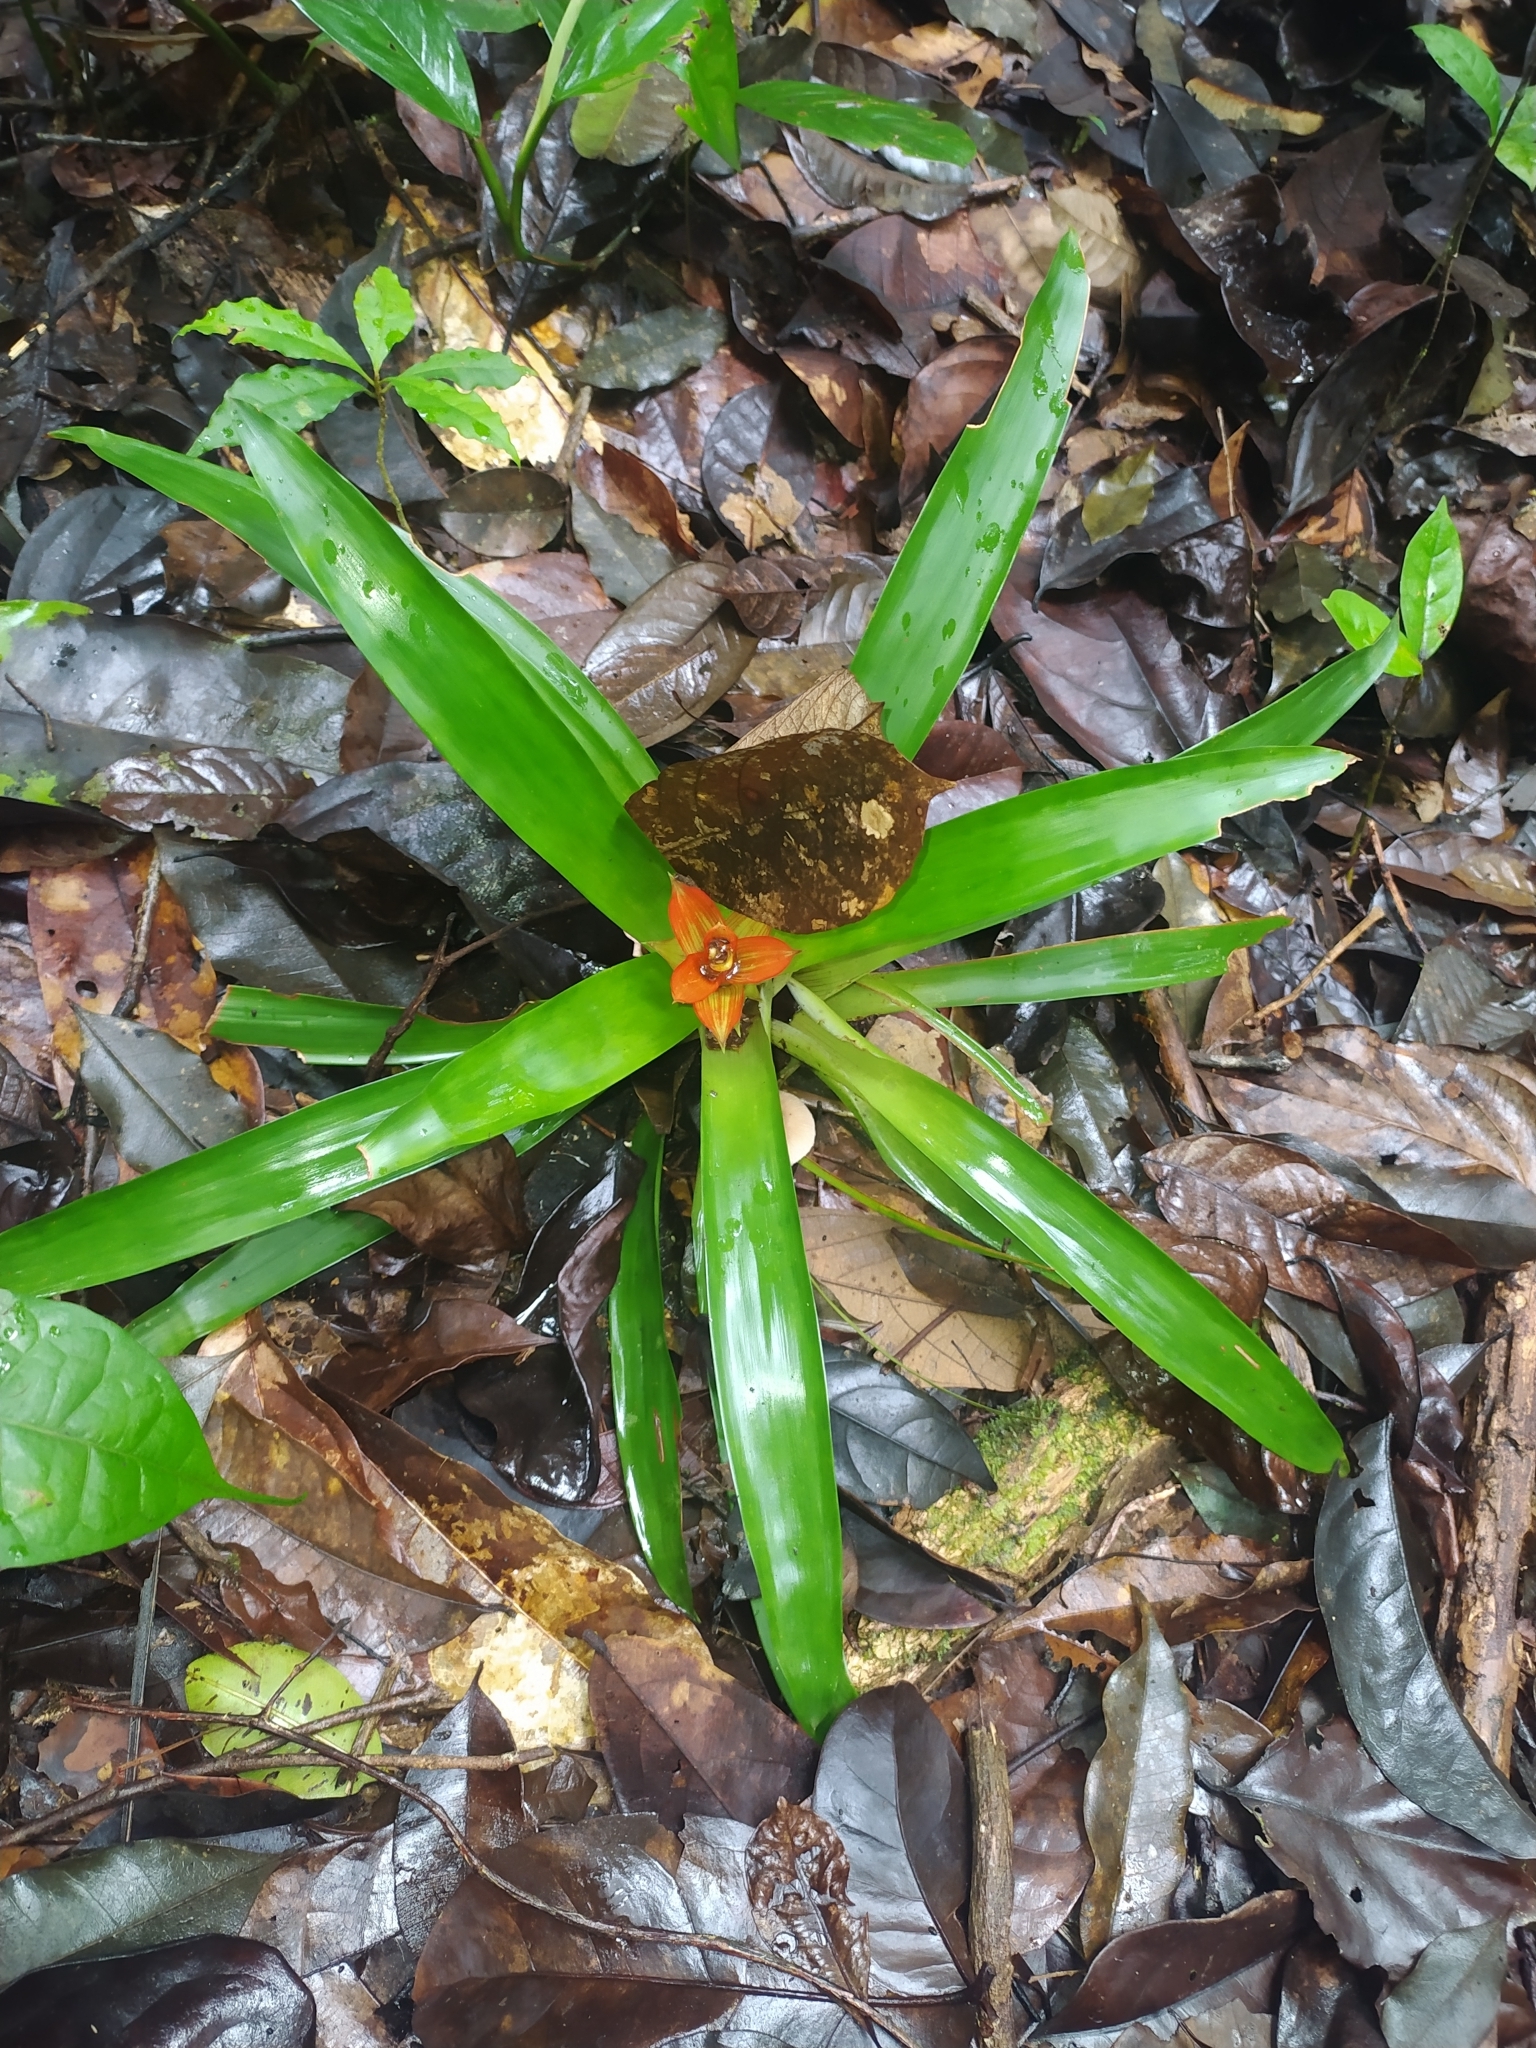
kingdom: Plantae
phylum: Tracheophyta
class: Liliopsida
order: Poales
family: Bromeliaceae
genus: Guzmania
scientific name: Guzmania lingulata
